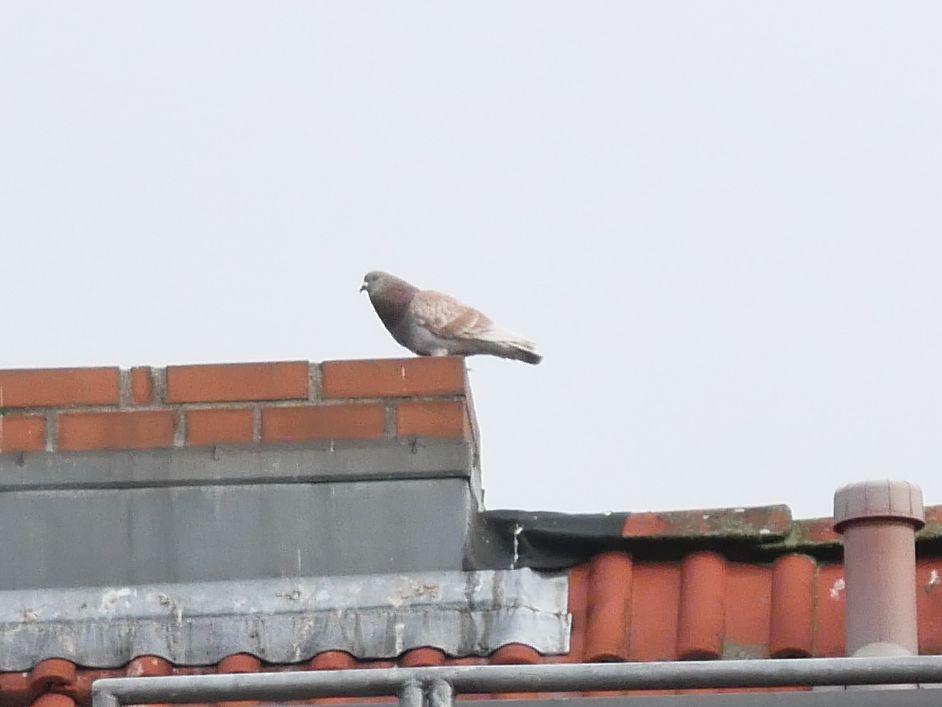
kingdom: Animalia
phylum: Chordata
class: Aves
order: Columbiformes
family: Columbidae
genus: Columba
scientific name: Columba livia
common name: Rock pigeon
